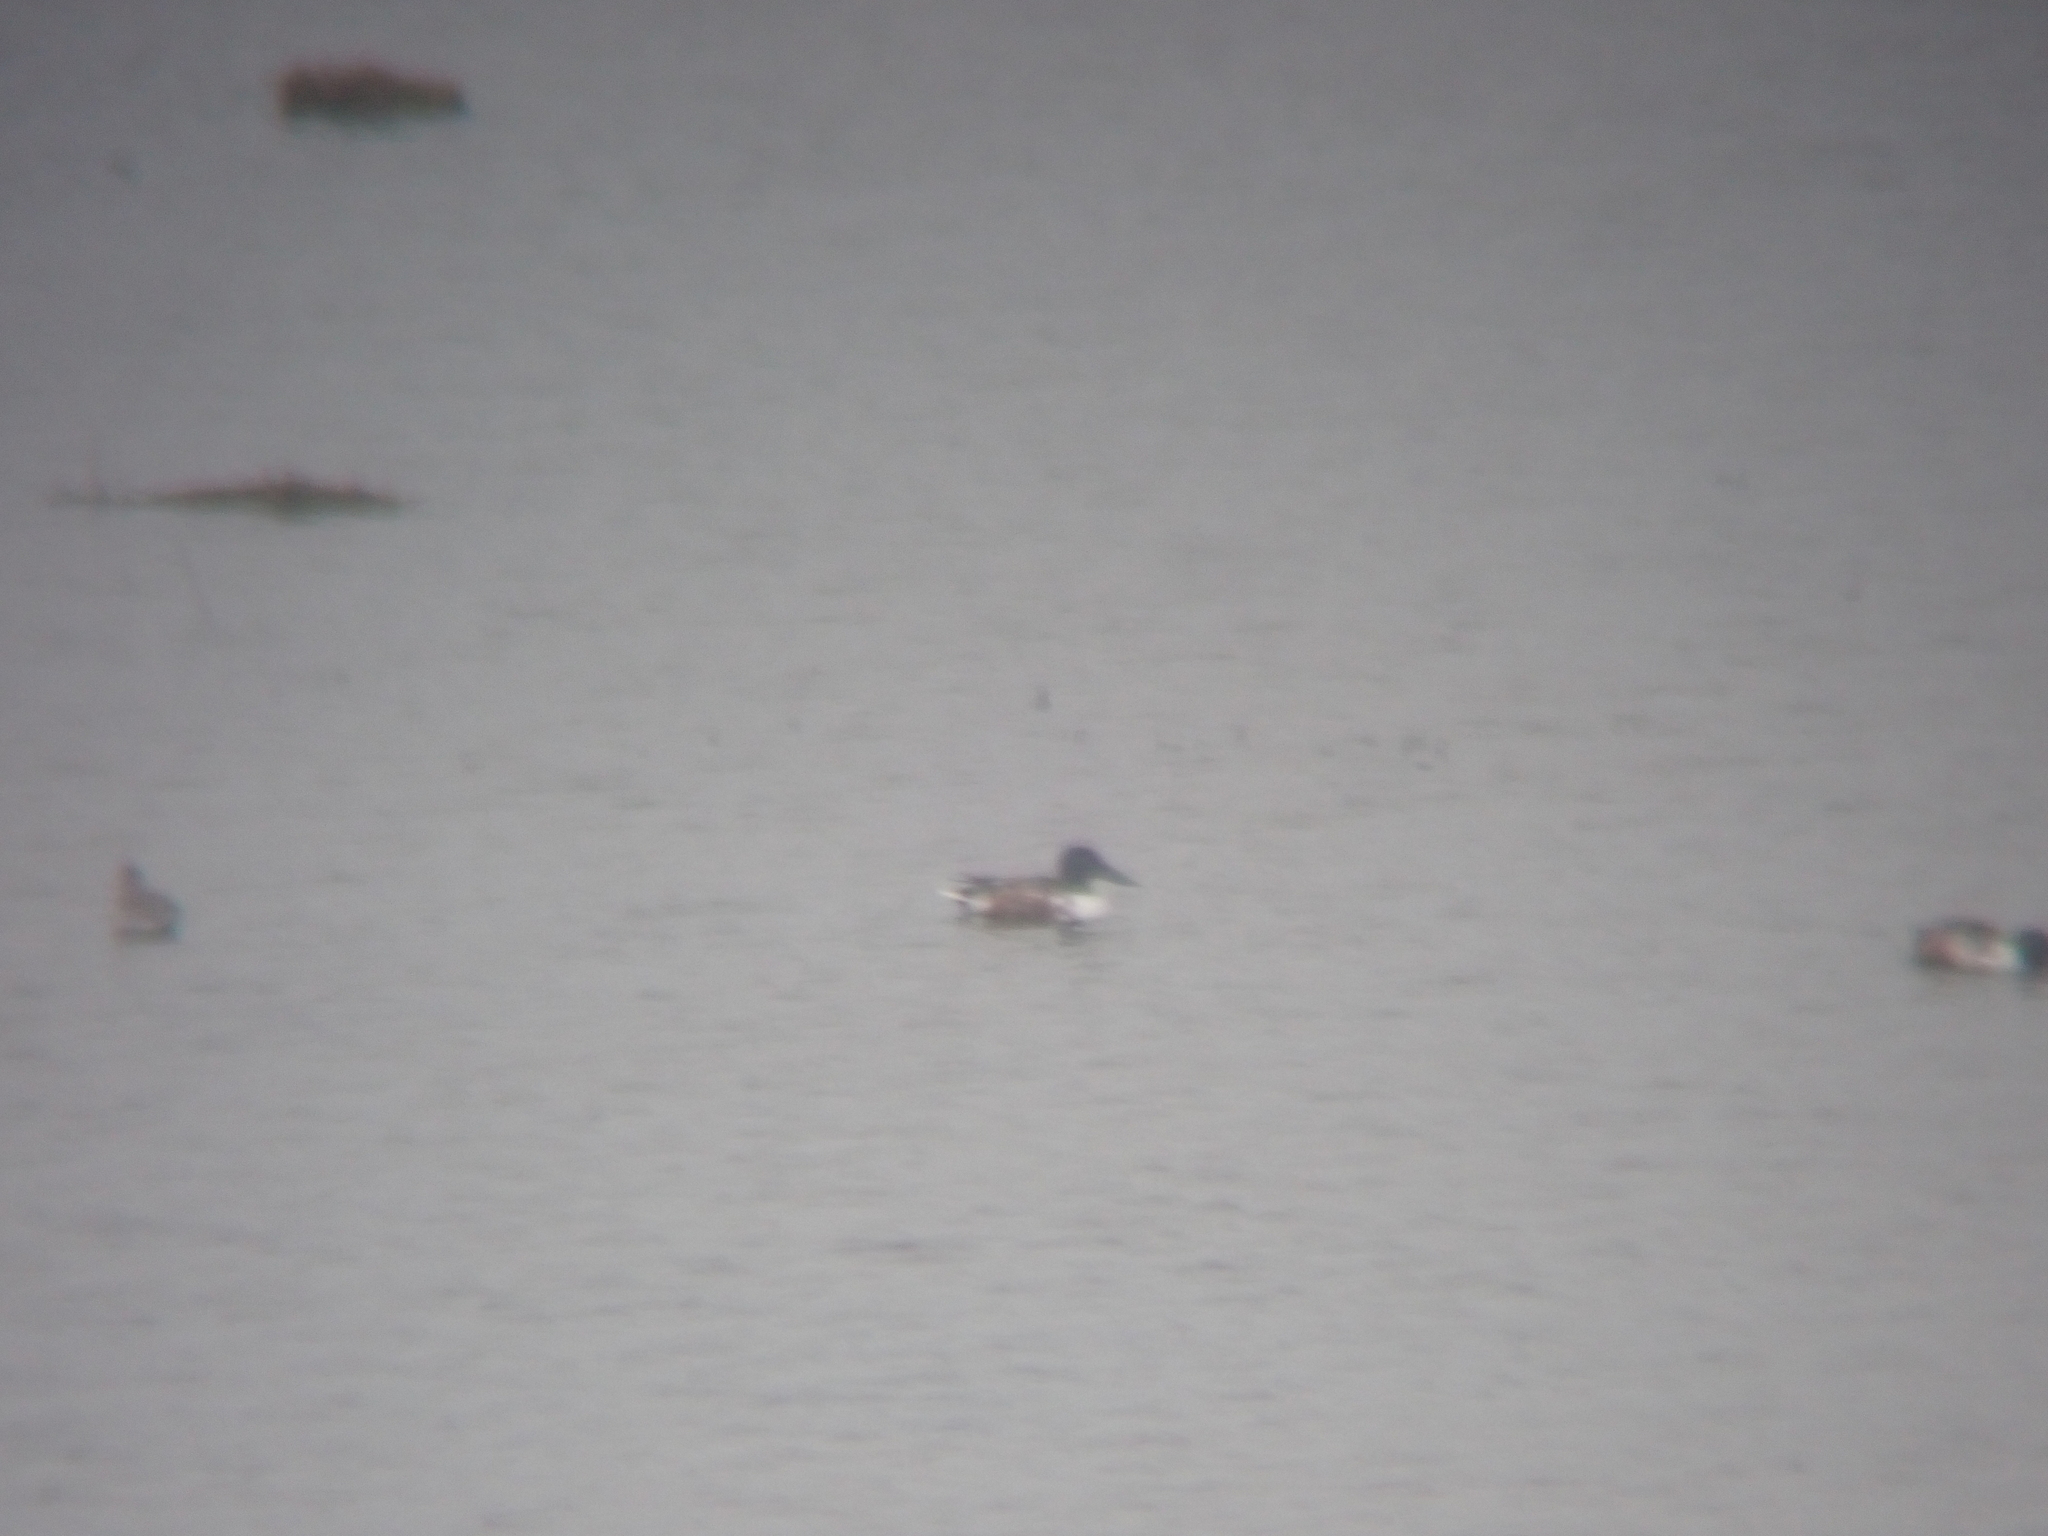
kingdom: Animalia
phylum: Chordata
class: Aves
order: Anseriformes
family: Anatidae
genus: Spatula
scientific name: Spatula clypeata
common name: Northern shoveler
